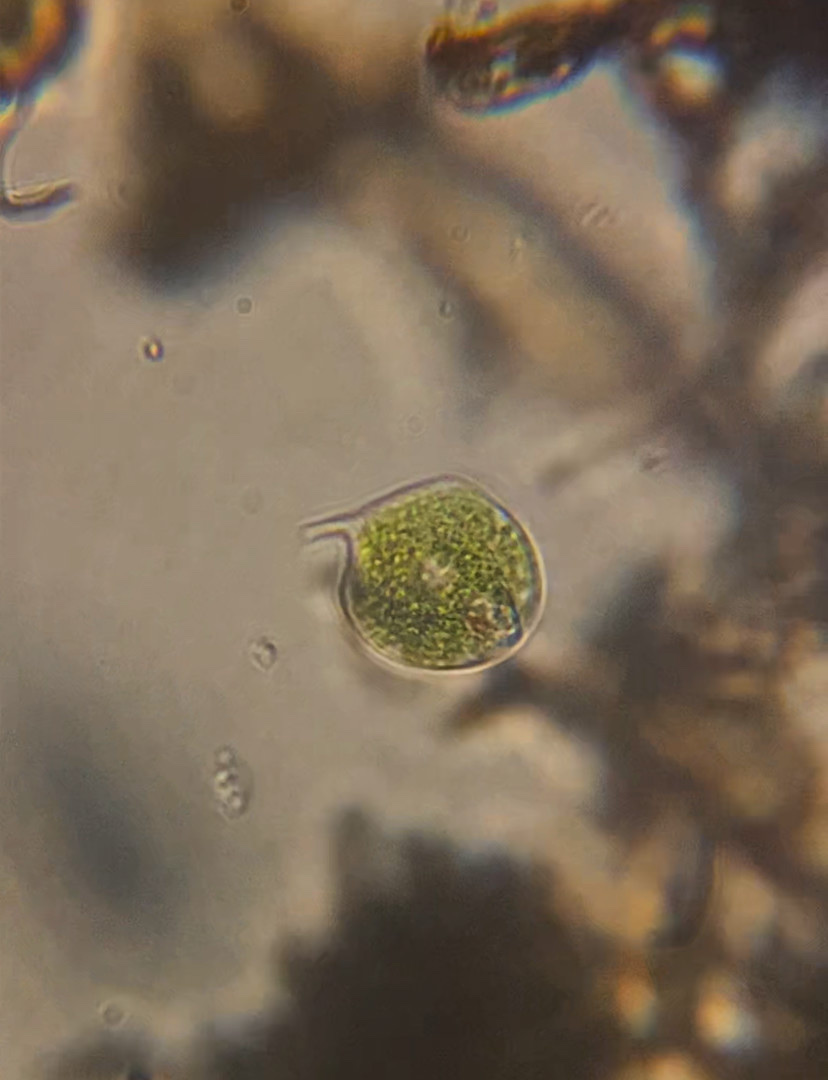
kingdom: Protozoa
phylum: Euglenozoa
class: Euglenoidea
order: Euglenida
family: Phacidae
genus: Phacus
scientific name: Phacus circulatus
